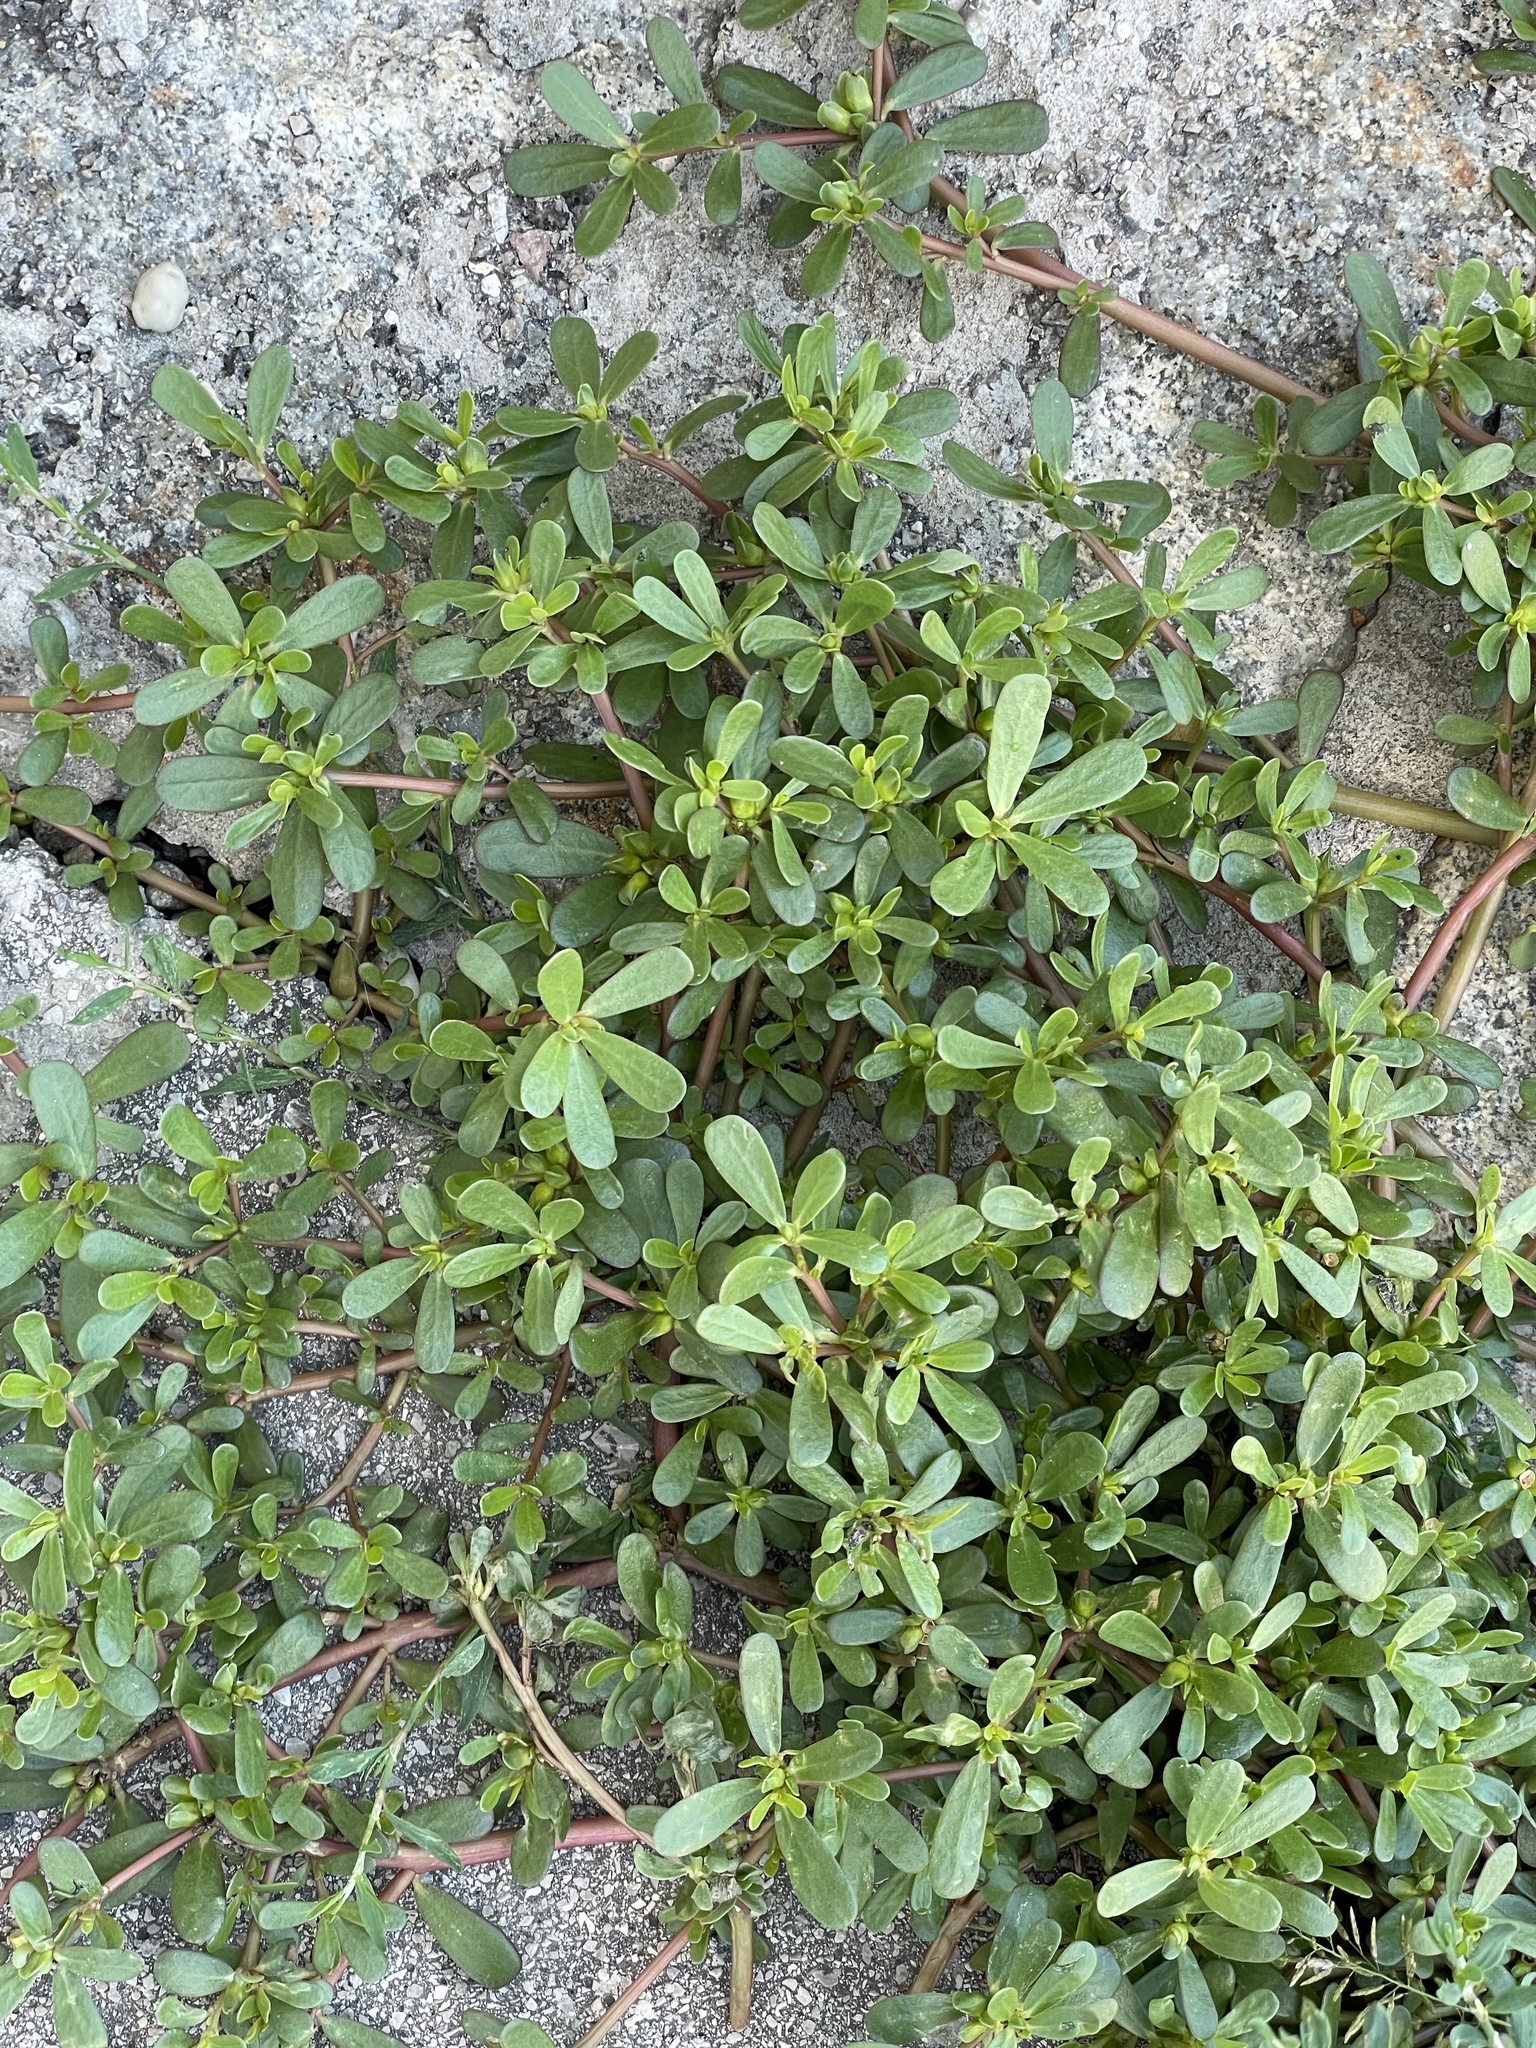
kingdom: Plantae
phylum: Tracheophyta
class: Magnoliopsida
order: Caryophyllales
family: Portulacaceae
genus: Portulaca
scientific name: Portulaca oleracea
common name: Common purslane
